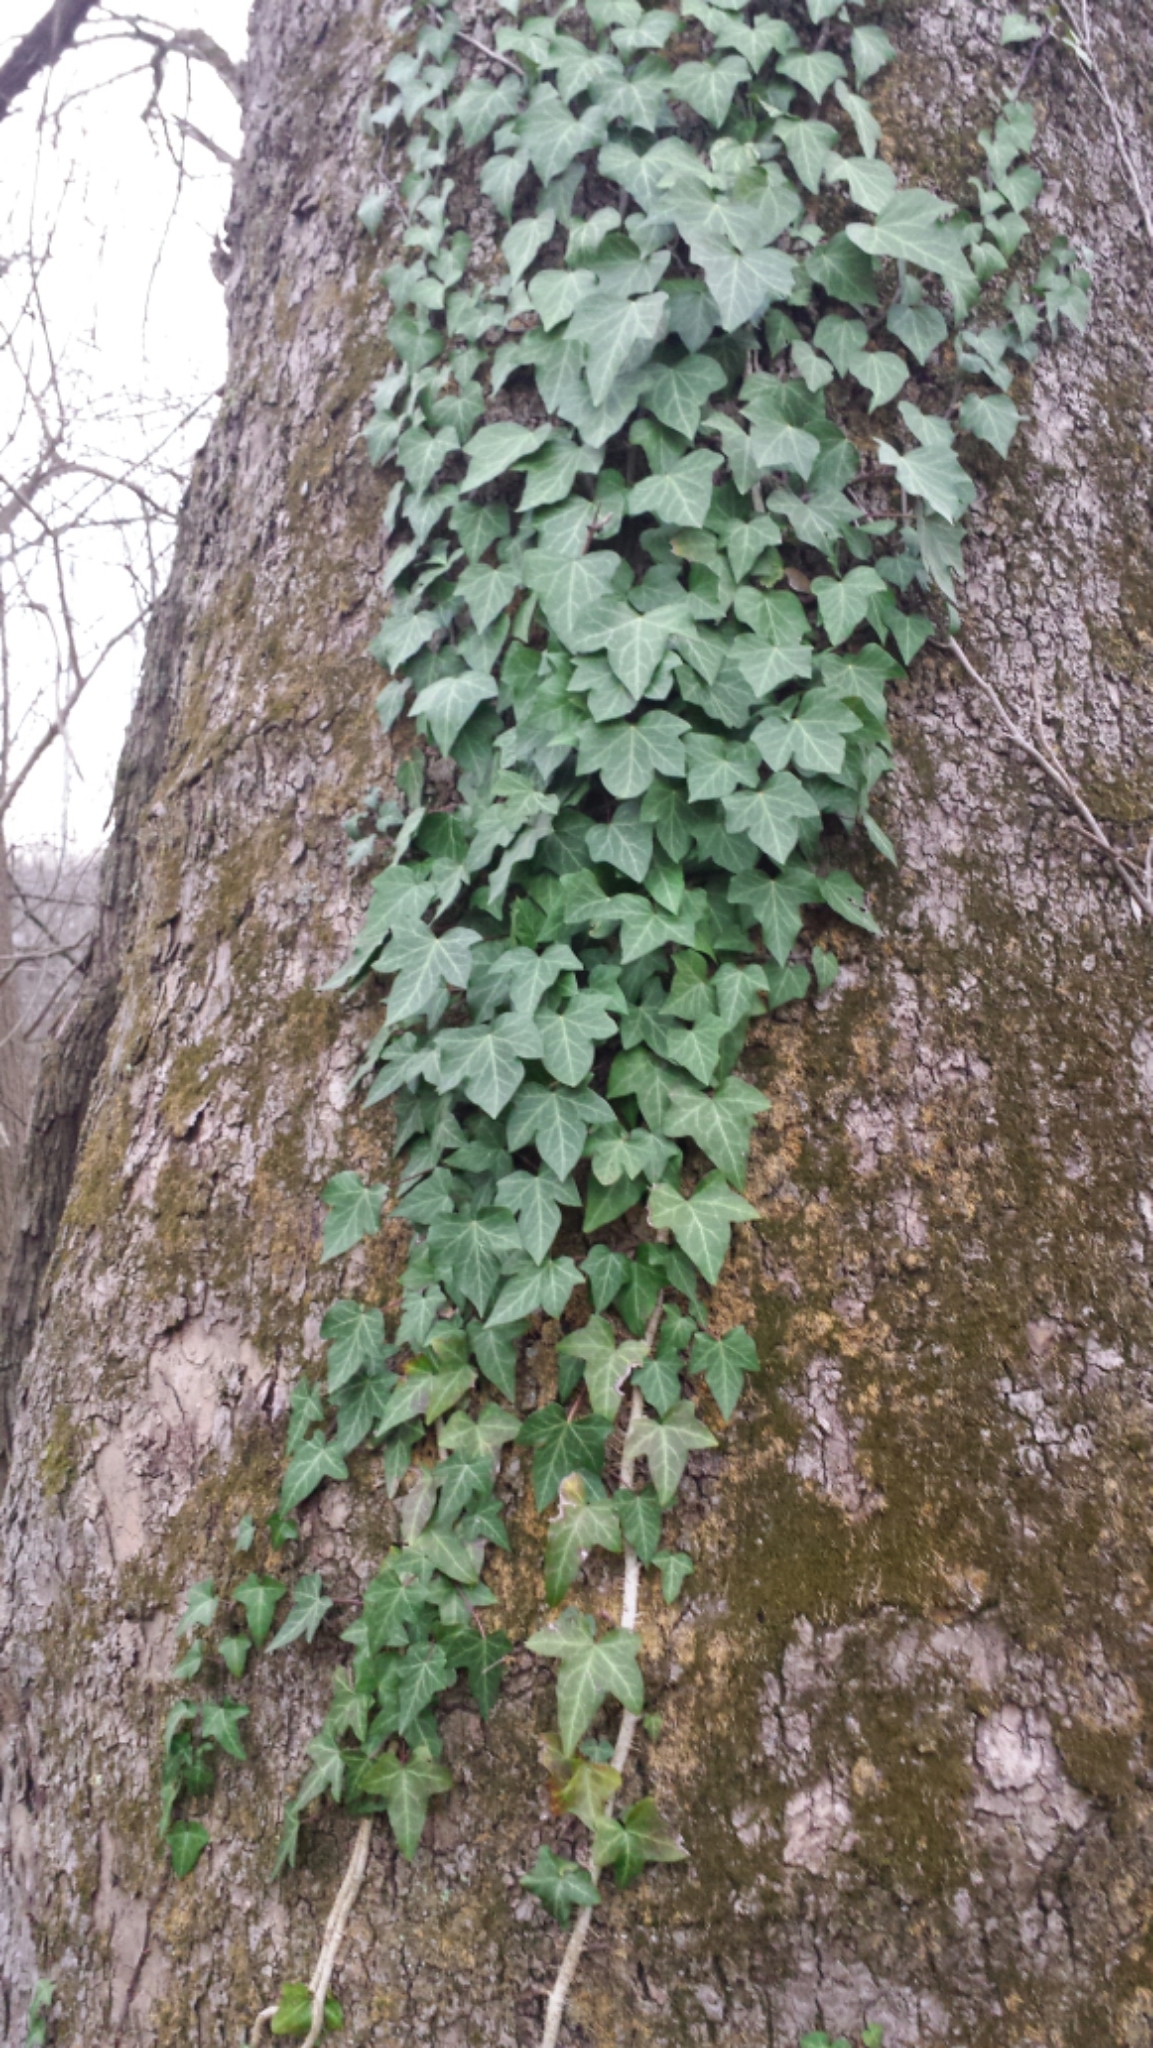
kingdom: Plantae
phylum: Tracheophyta
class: Magnoliopsida
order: Apiales
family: Araliaceae
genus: Hedera
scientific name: Hedera helix
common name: Ivy
